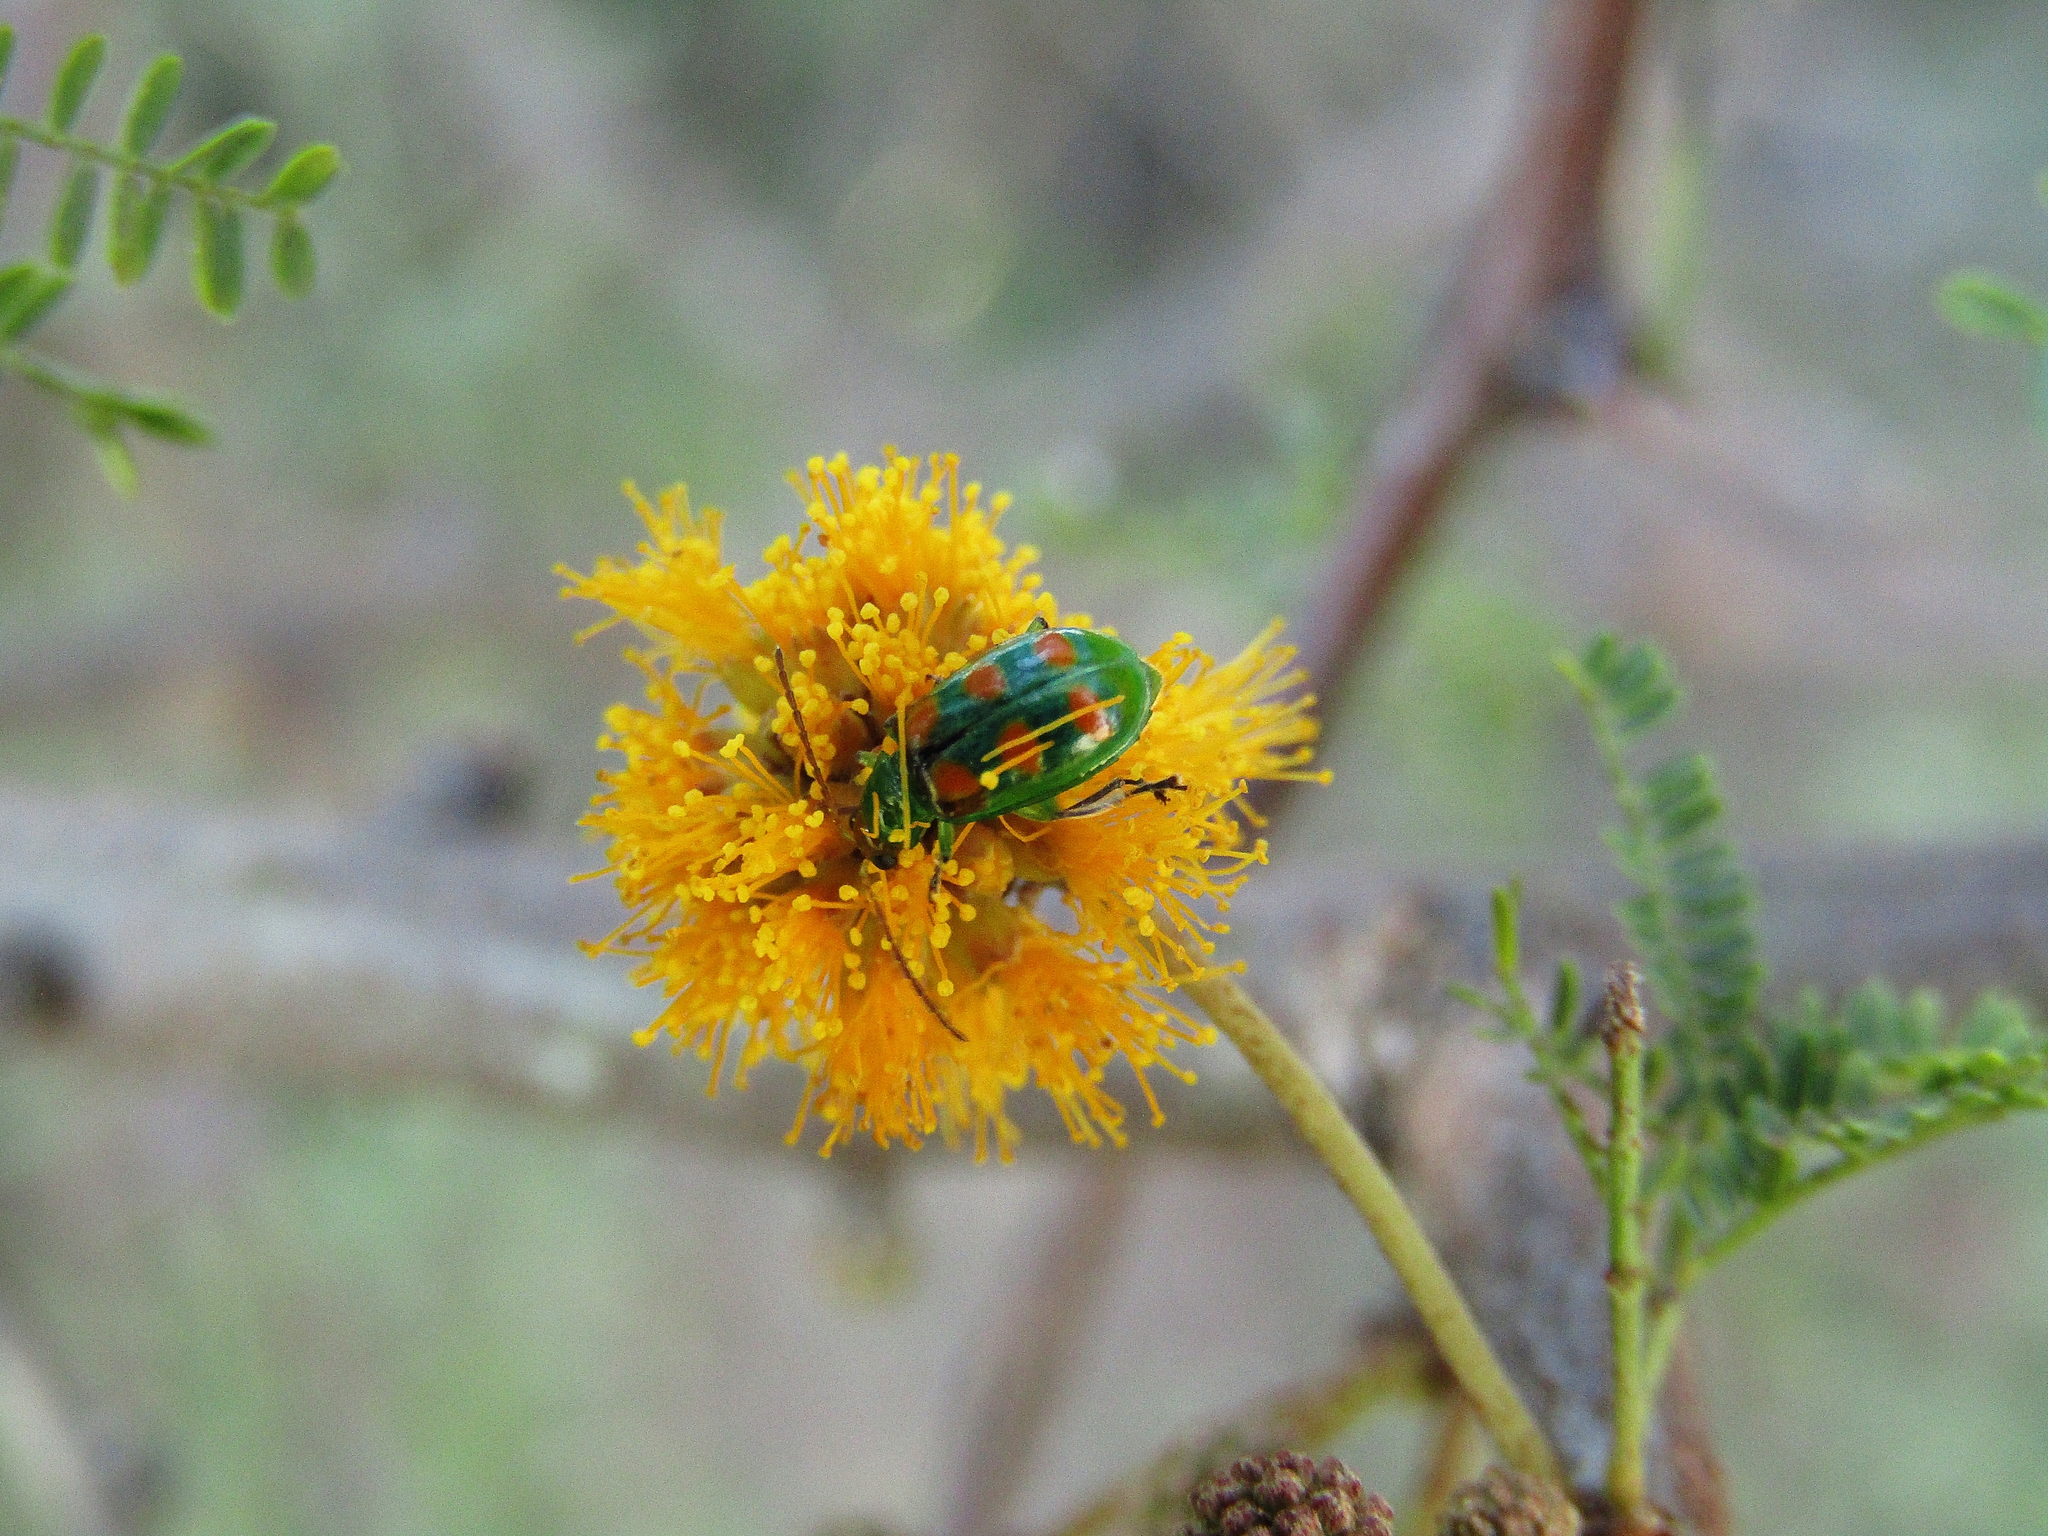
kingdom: Animalia
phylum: Arthropoda
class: Insecta
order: Coleoptera
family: Chrysomelidae
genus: Diabrotica
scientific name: Diabrotica speciosa
